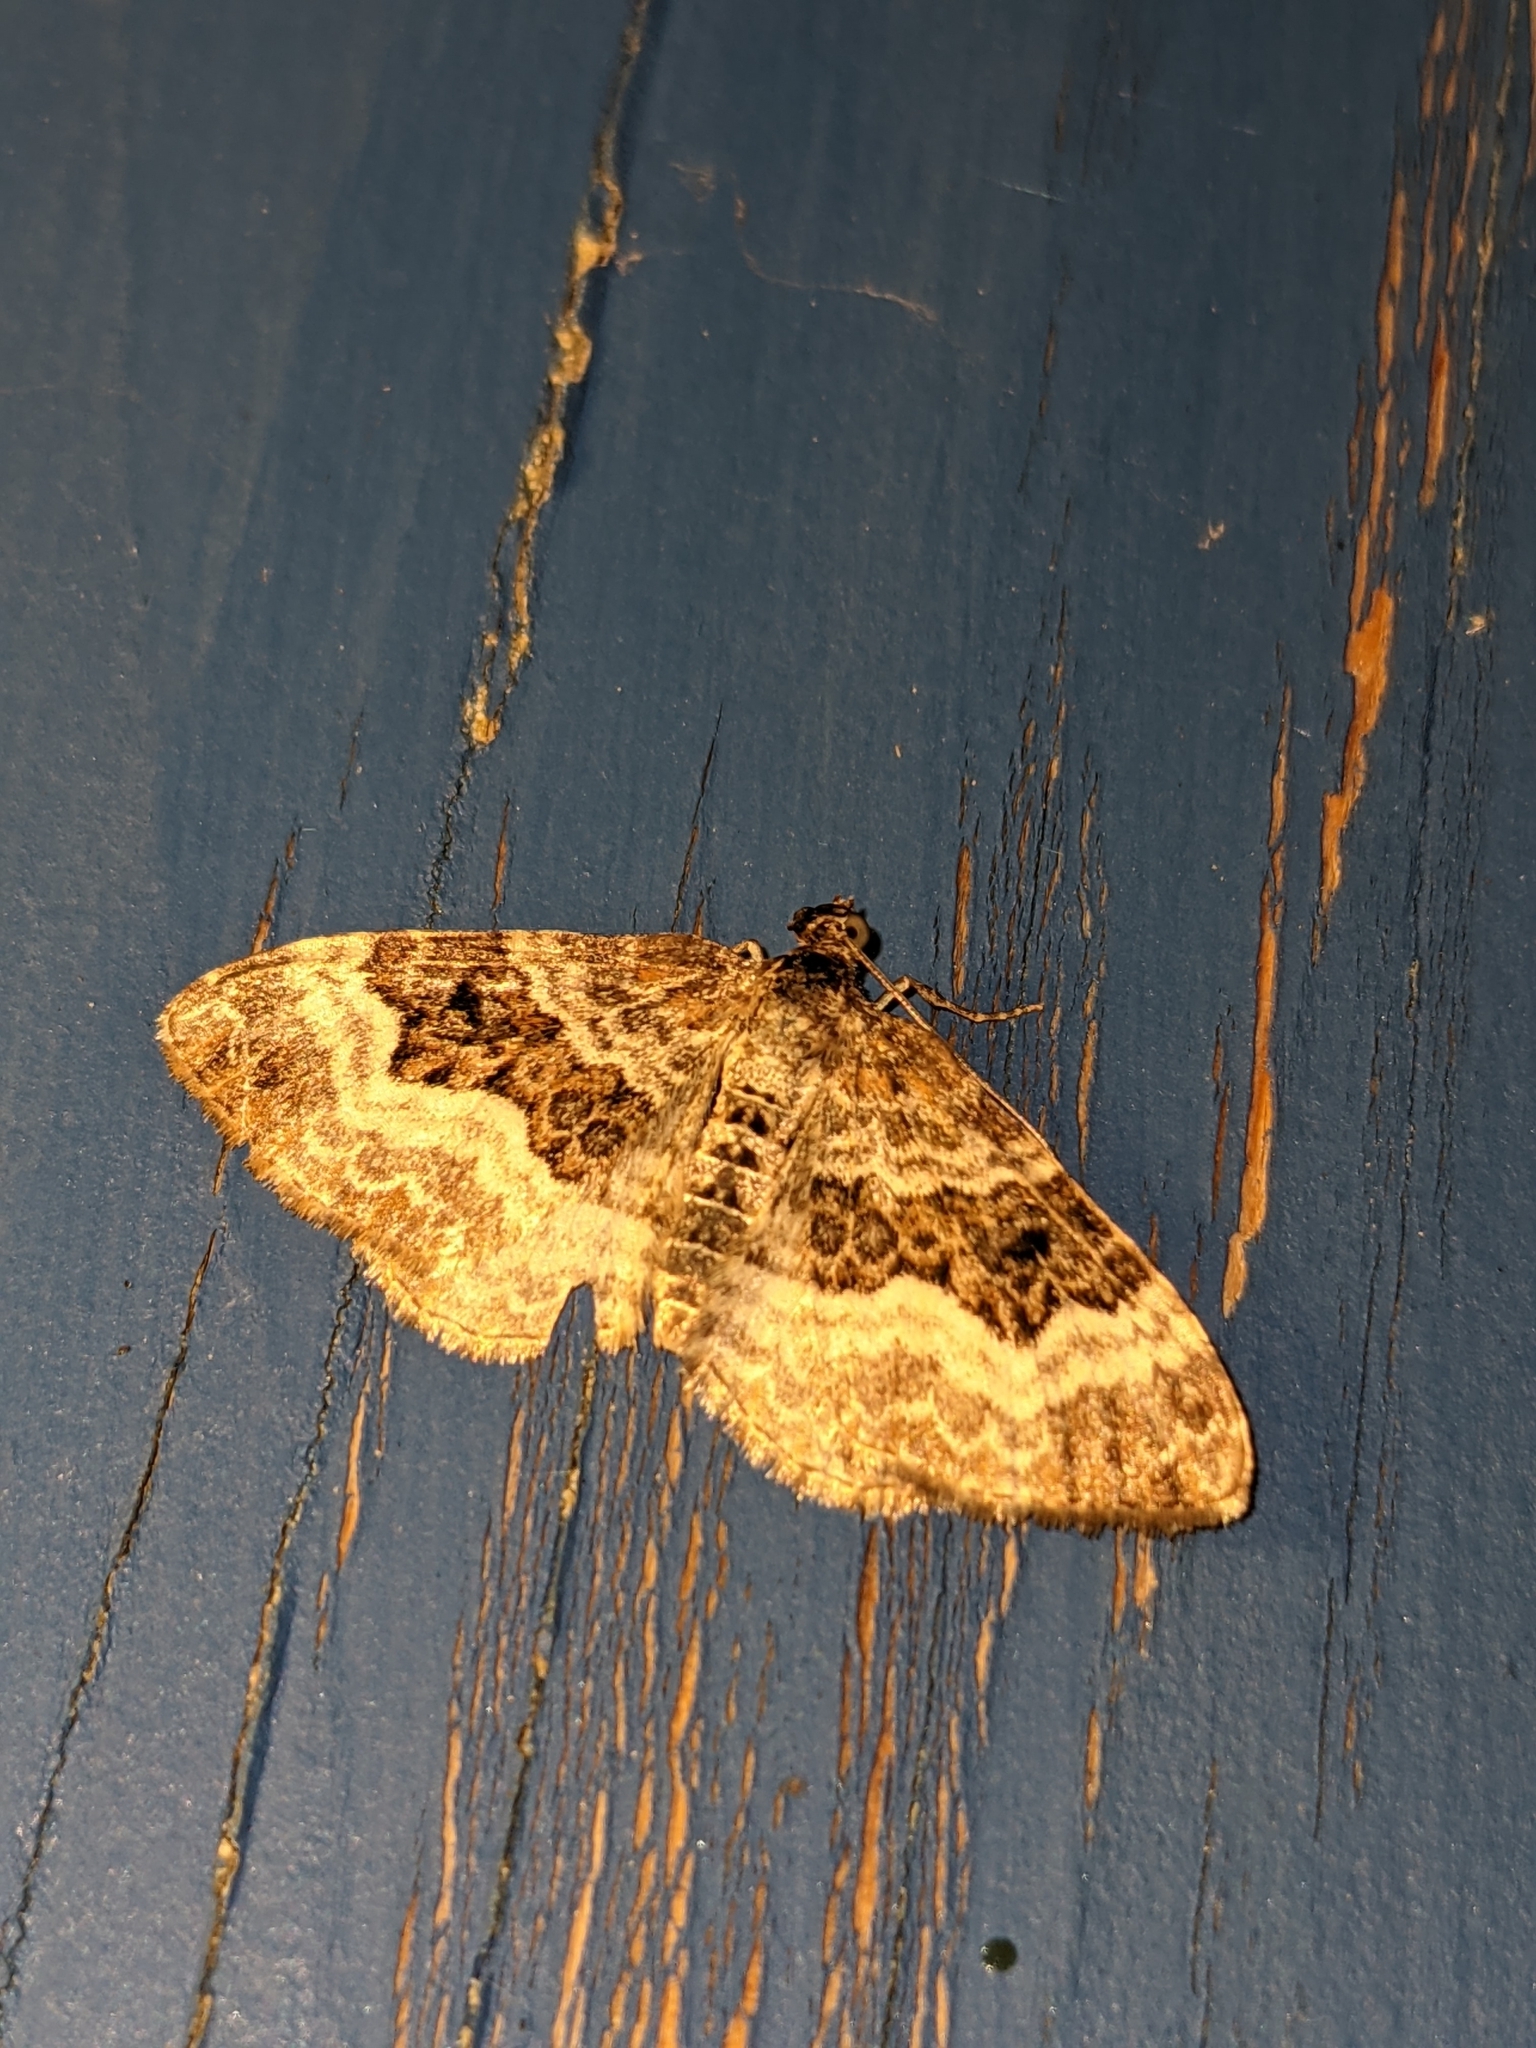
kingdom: Animalia
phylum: Arthropoda
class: Insecta
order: Lepidoptera
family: Geometridae
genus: Epirrhoe
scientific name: Epirrhoe alternata
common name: Common carpet
